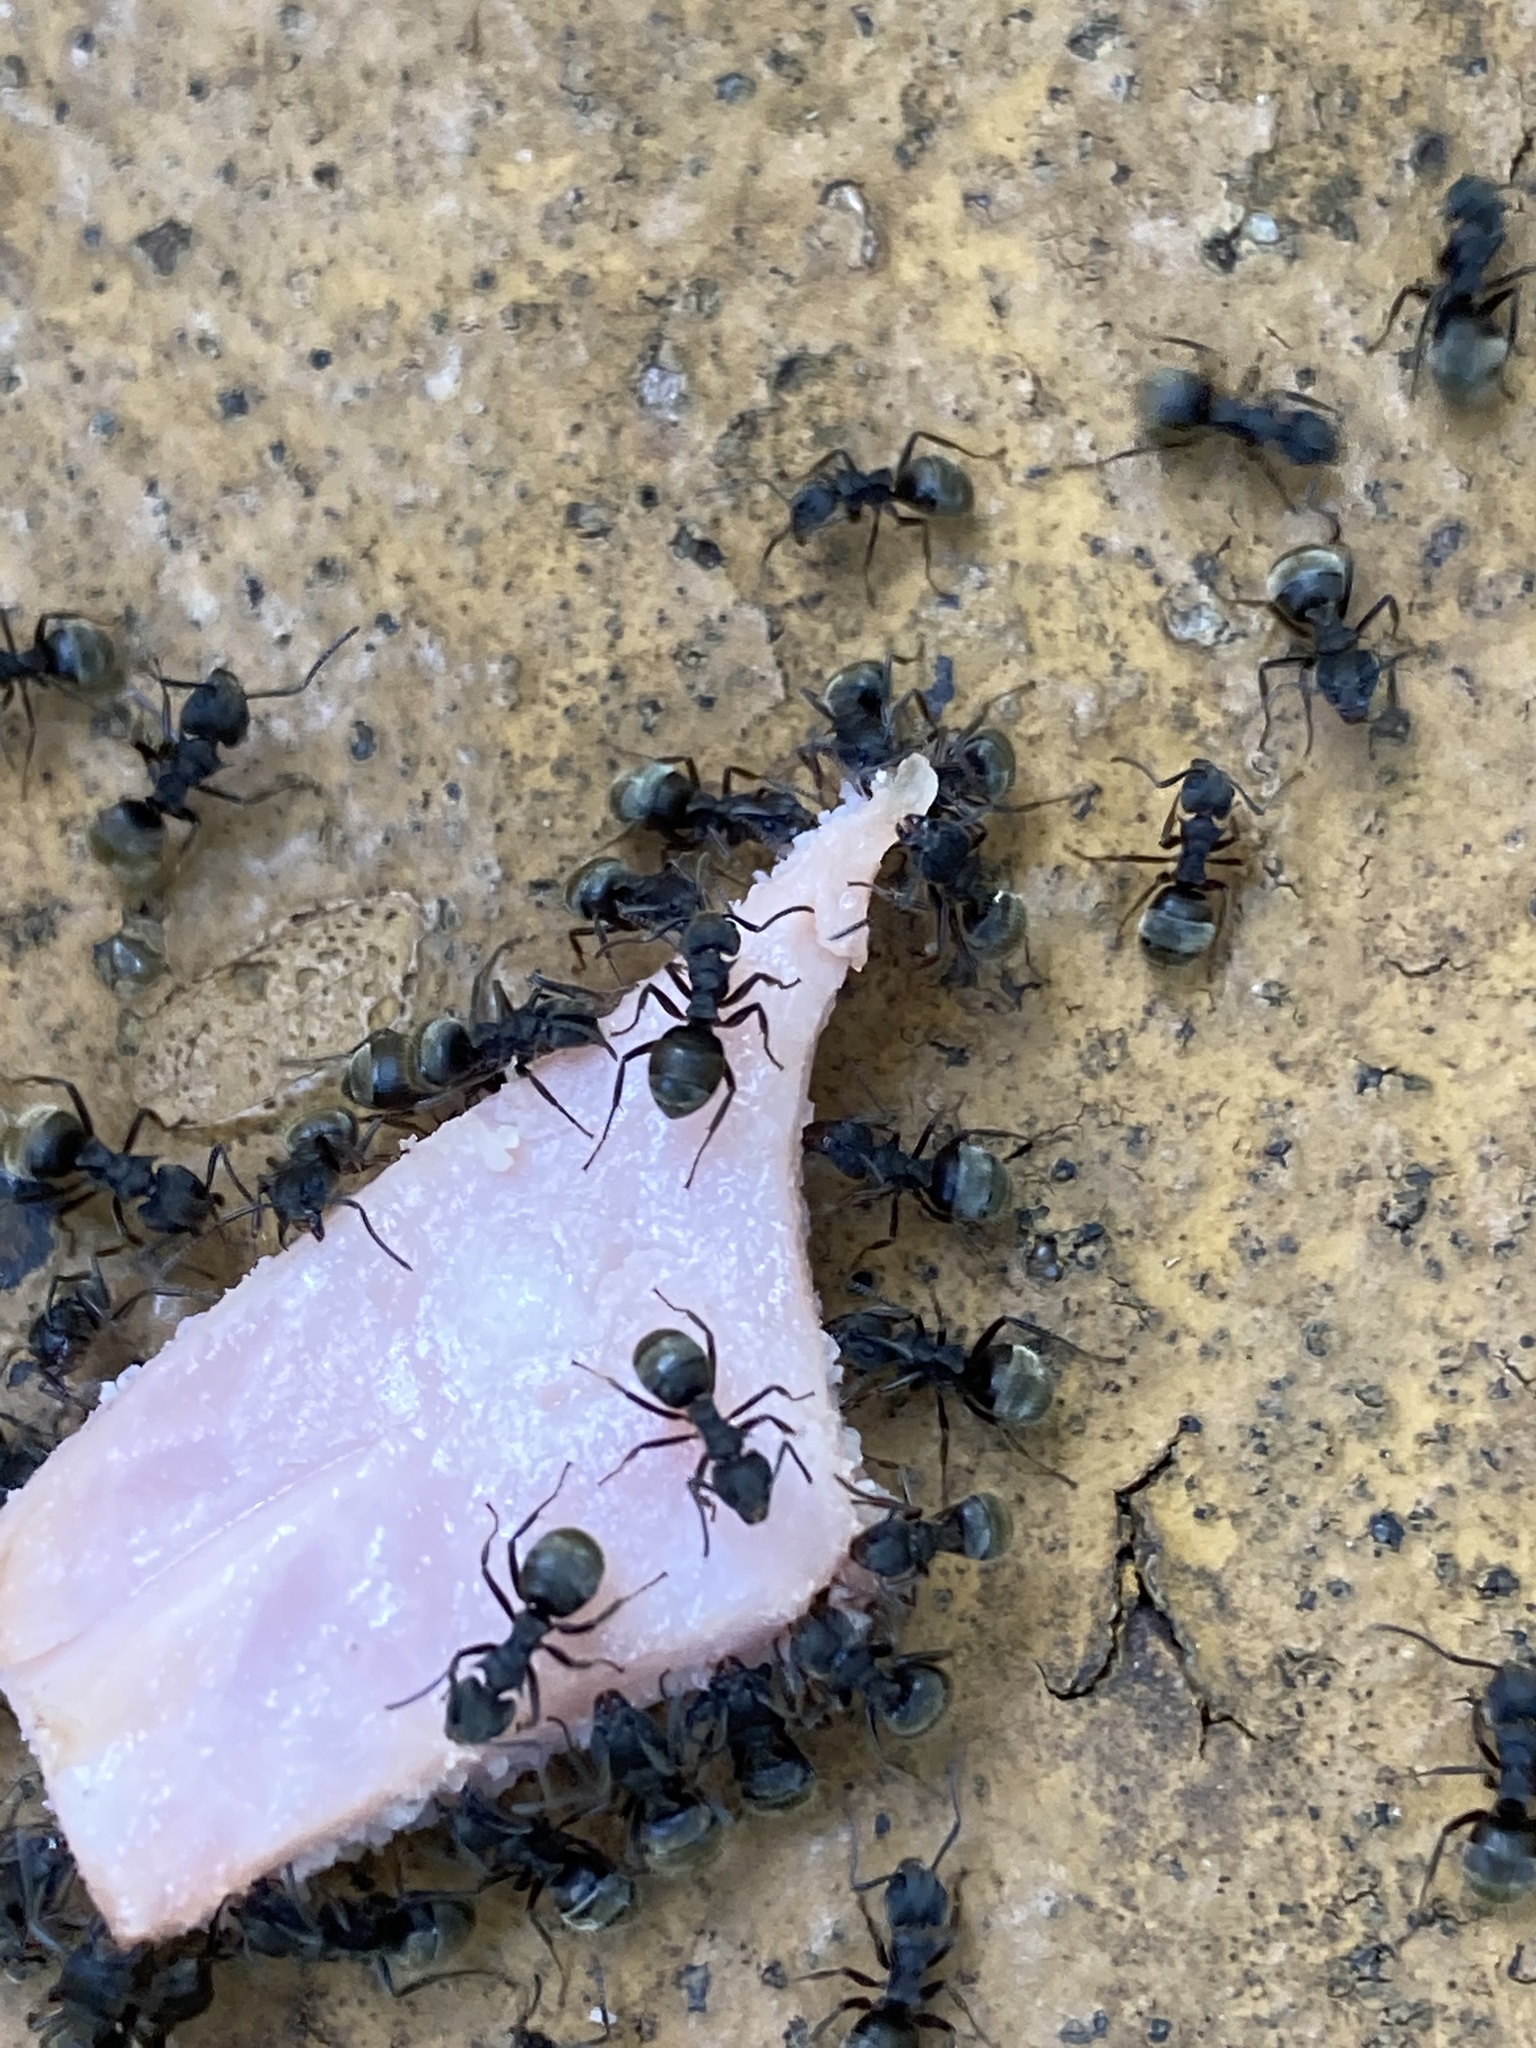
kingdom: Animalia
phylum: Arthropoda
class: Insecta
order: Hymenoptera
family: Formicidae
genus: Dolichoderus
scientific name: Dolichoderus bispinosus
